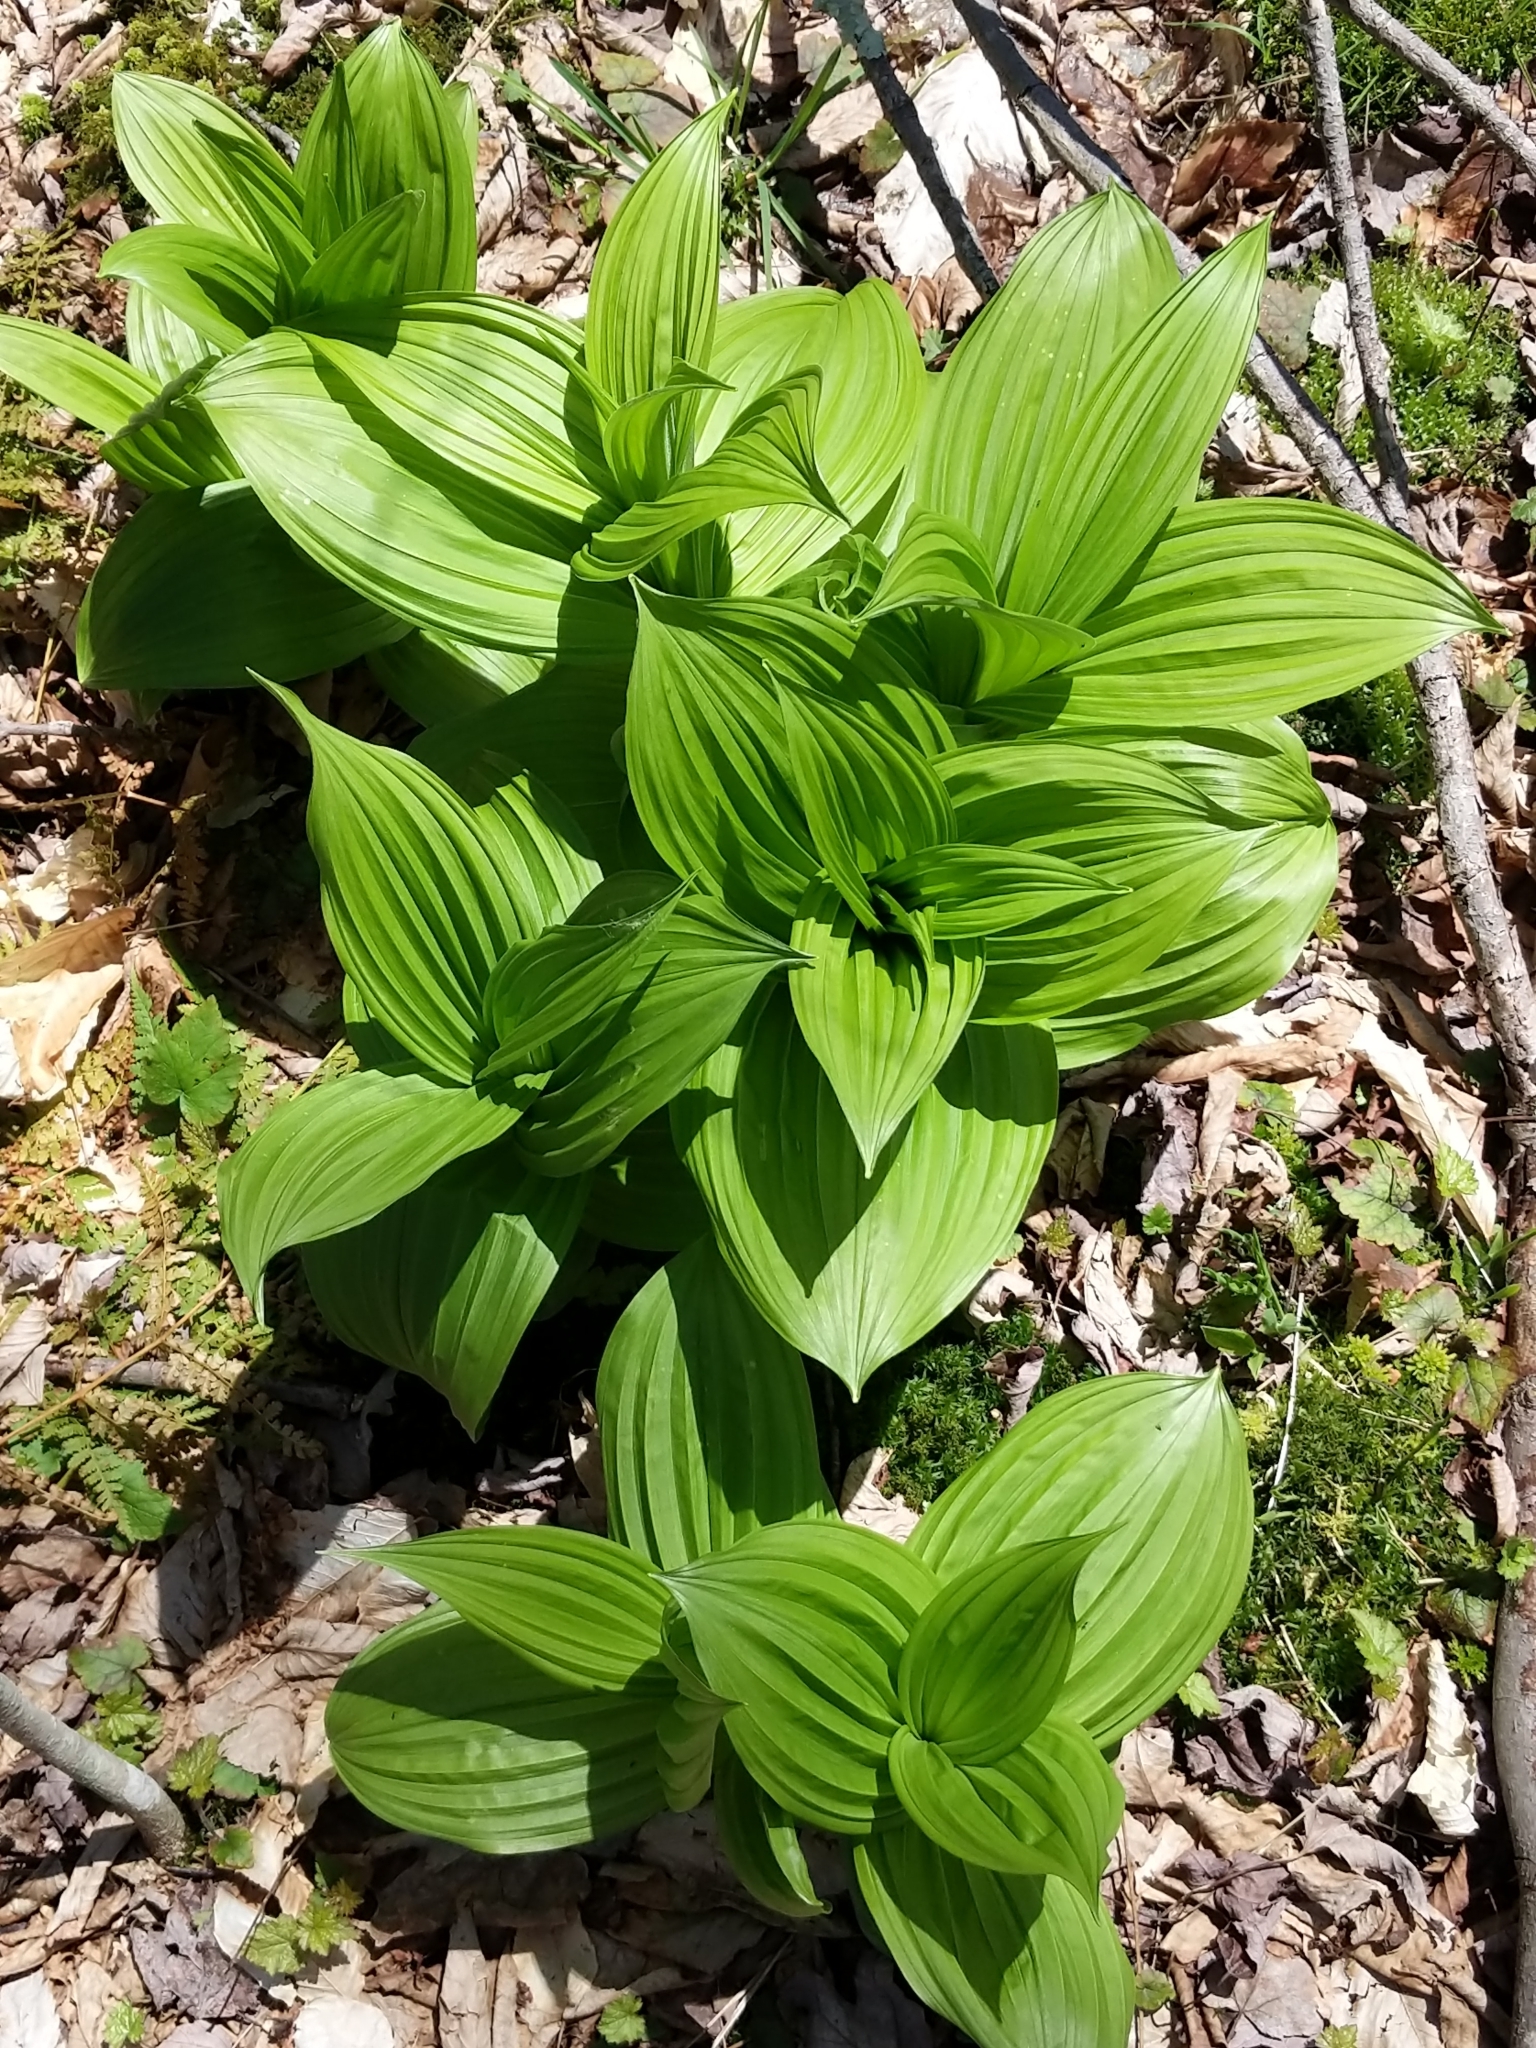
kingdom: Plantae
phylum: Tracheophyta
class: Liliopsida
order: Liliales
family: Melanthiaceae
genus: Veratrum
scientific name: Veratrum viride
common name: American false hellebore
